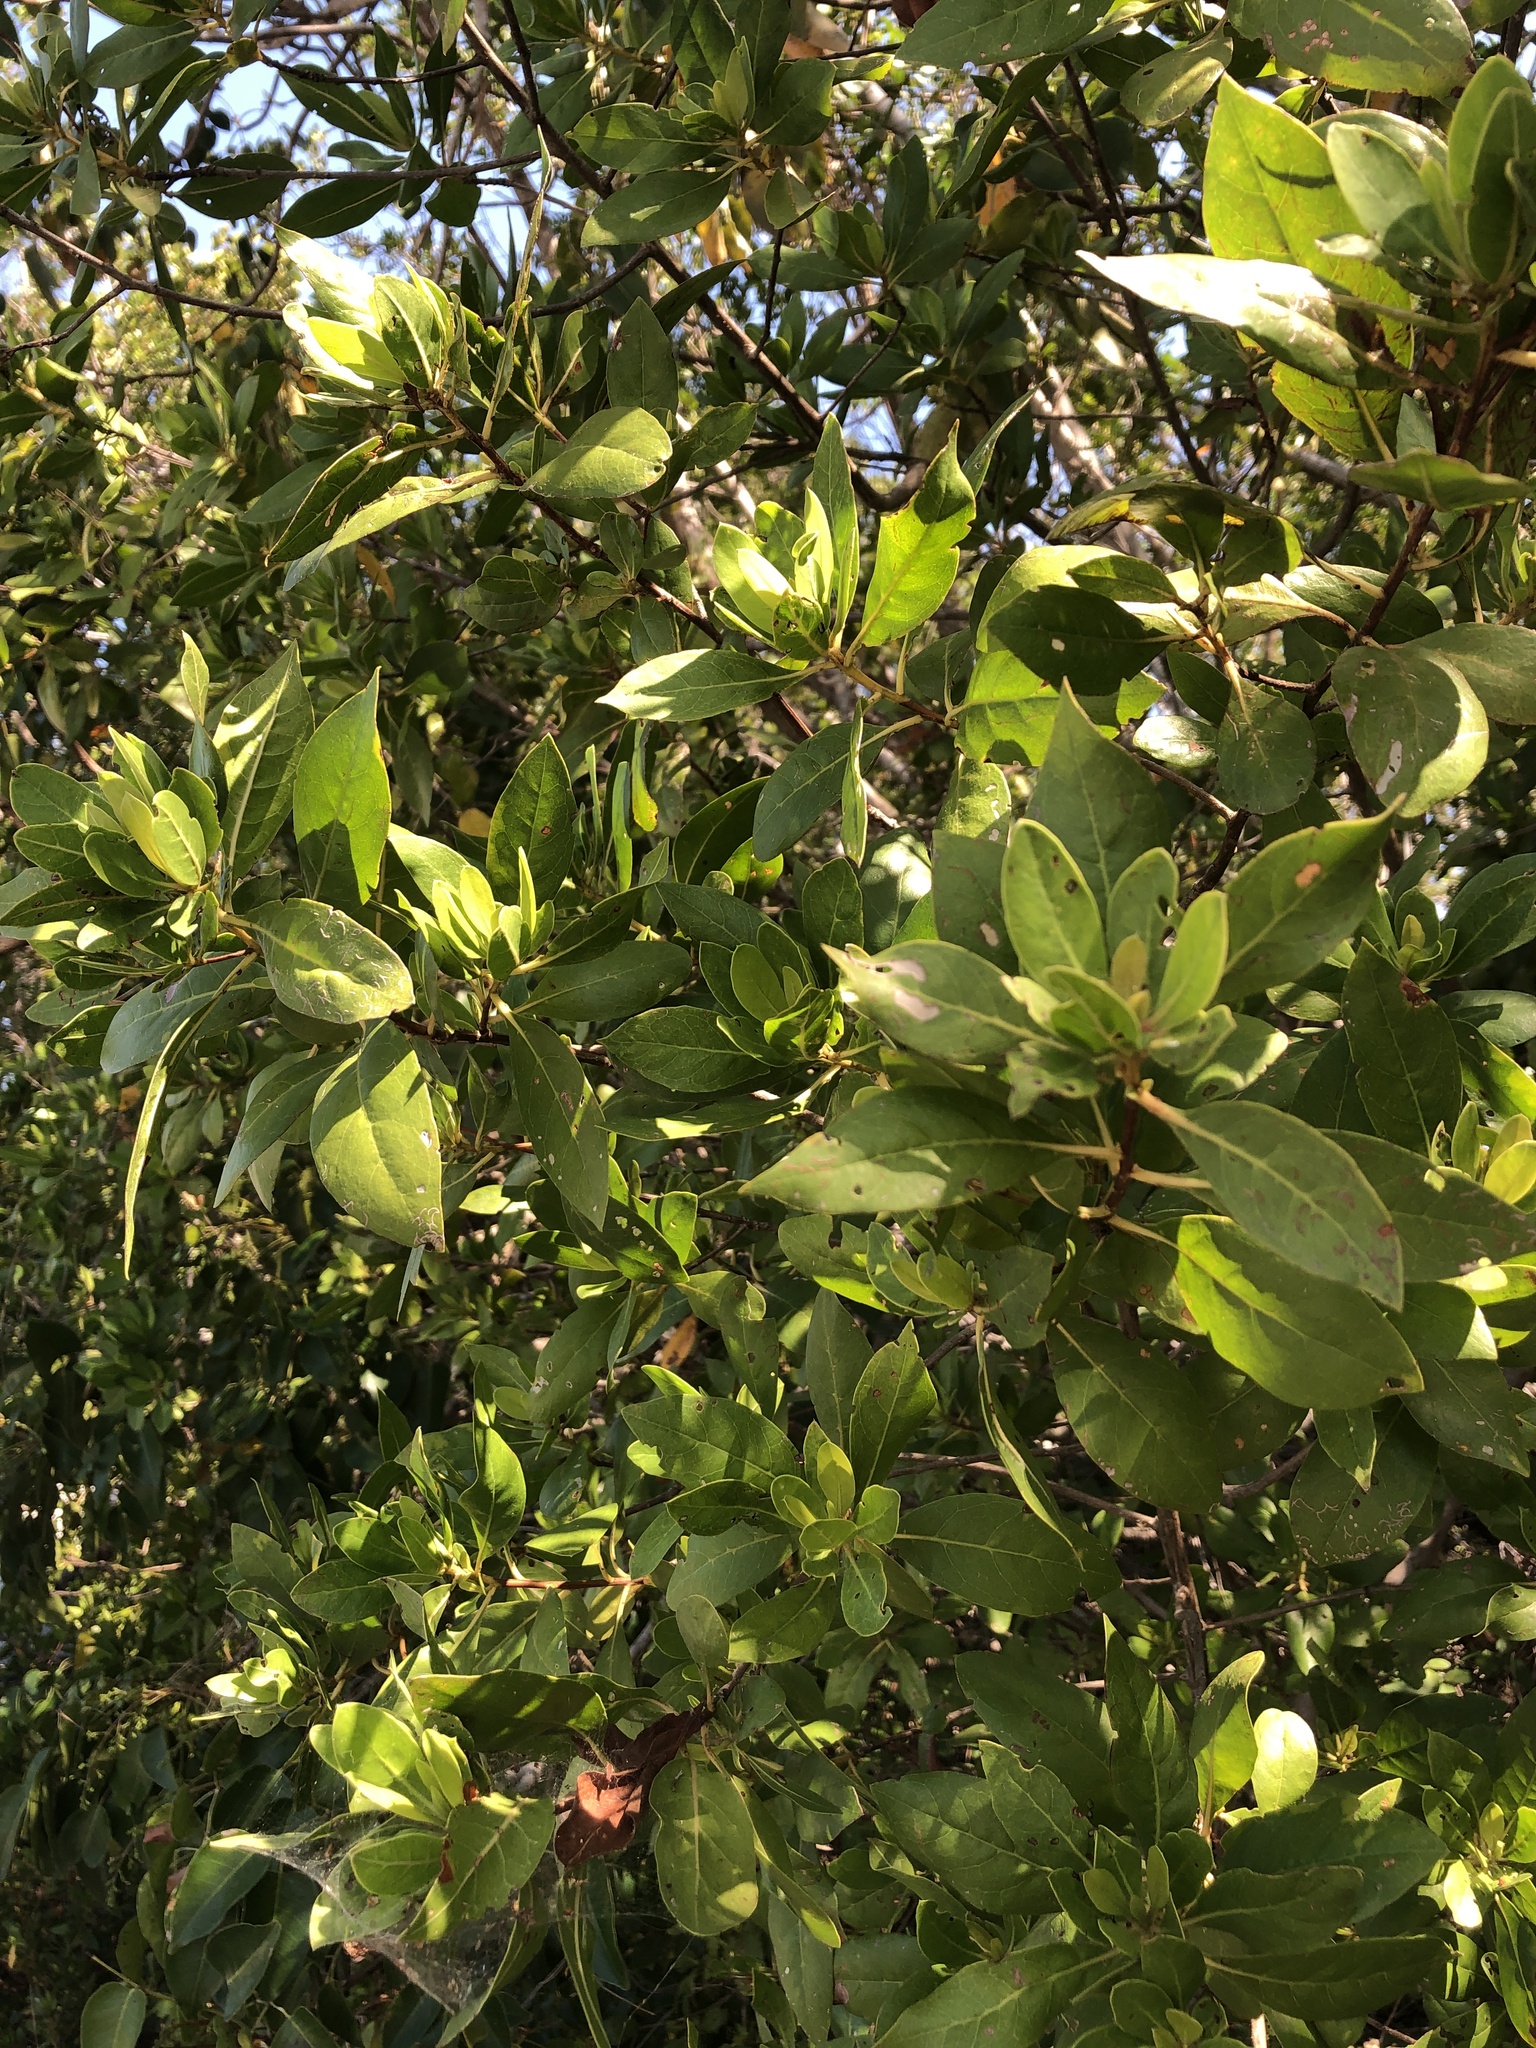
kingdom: Plantae
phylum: Tracheophyta
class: Magnoliopsida
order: Myrtales
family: Combretaceae
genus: Conocarpus
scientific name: Conocarpus erectus
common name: Button mangrove
